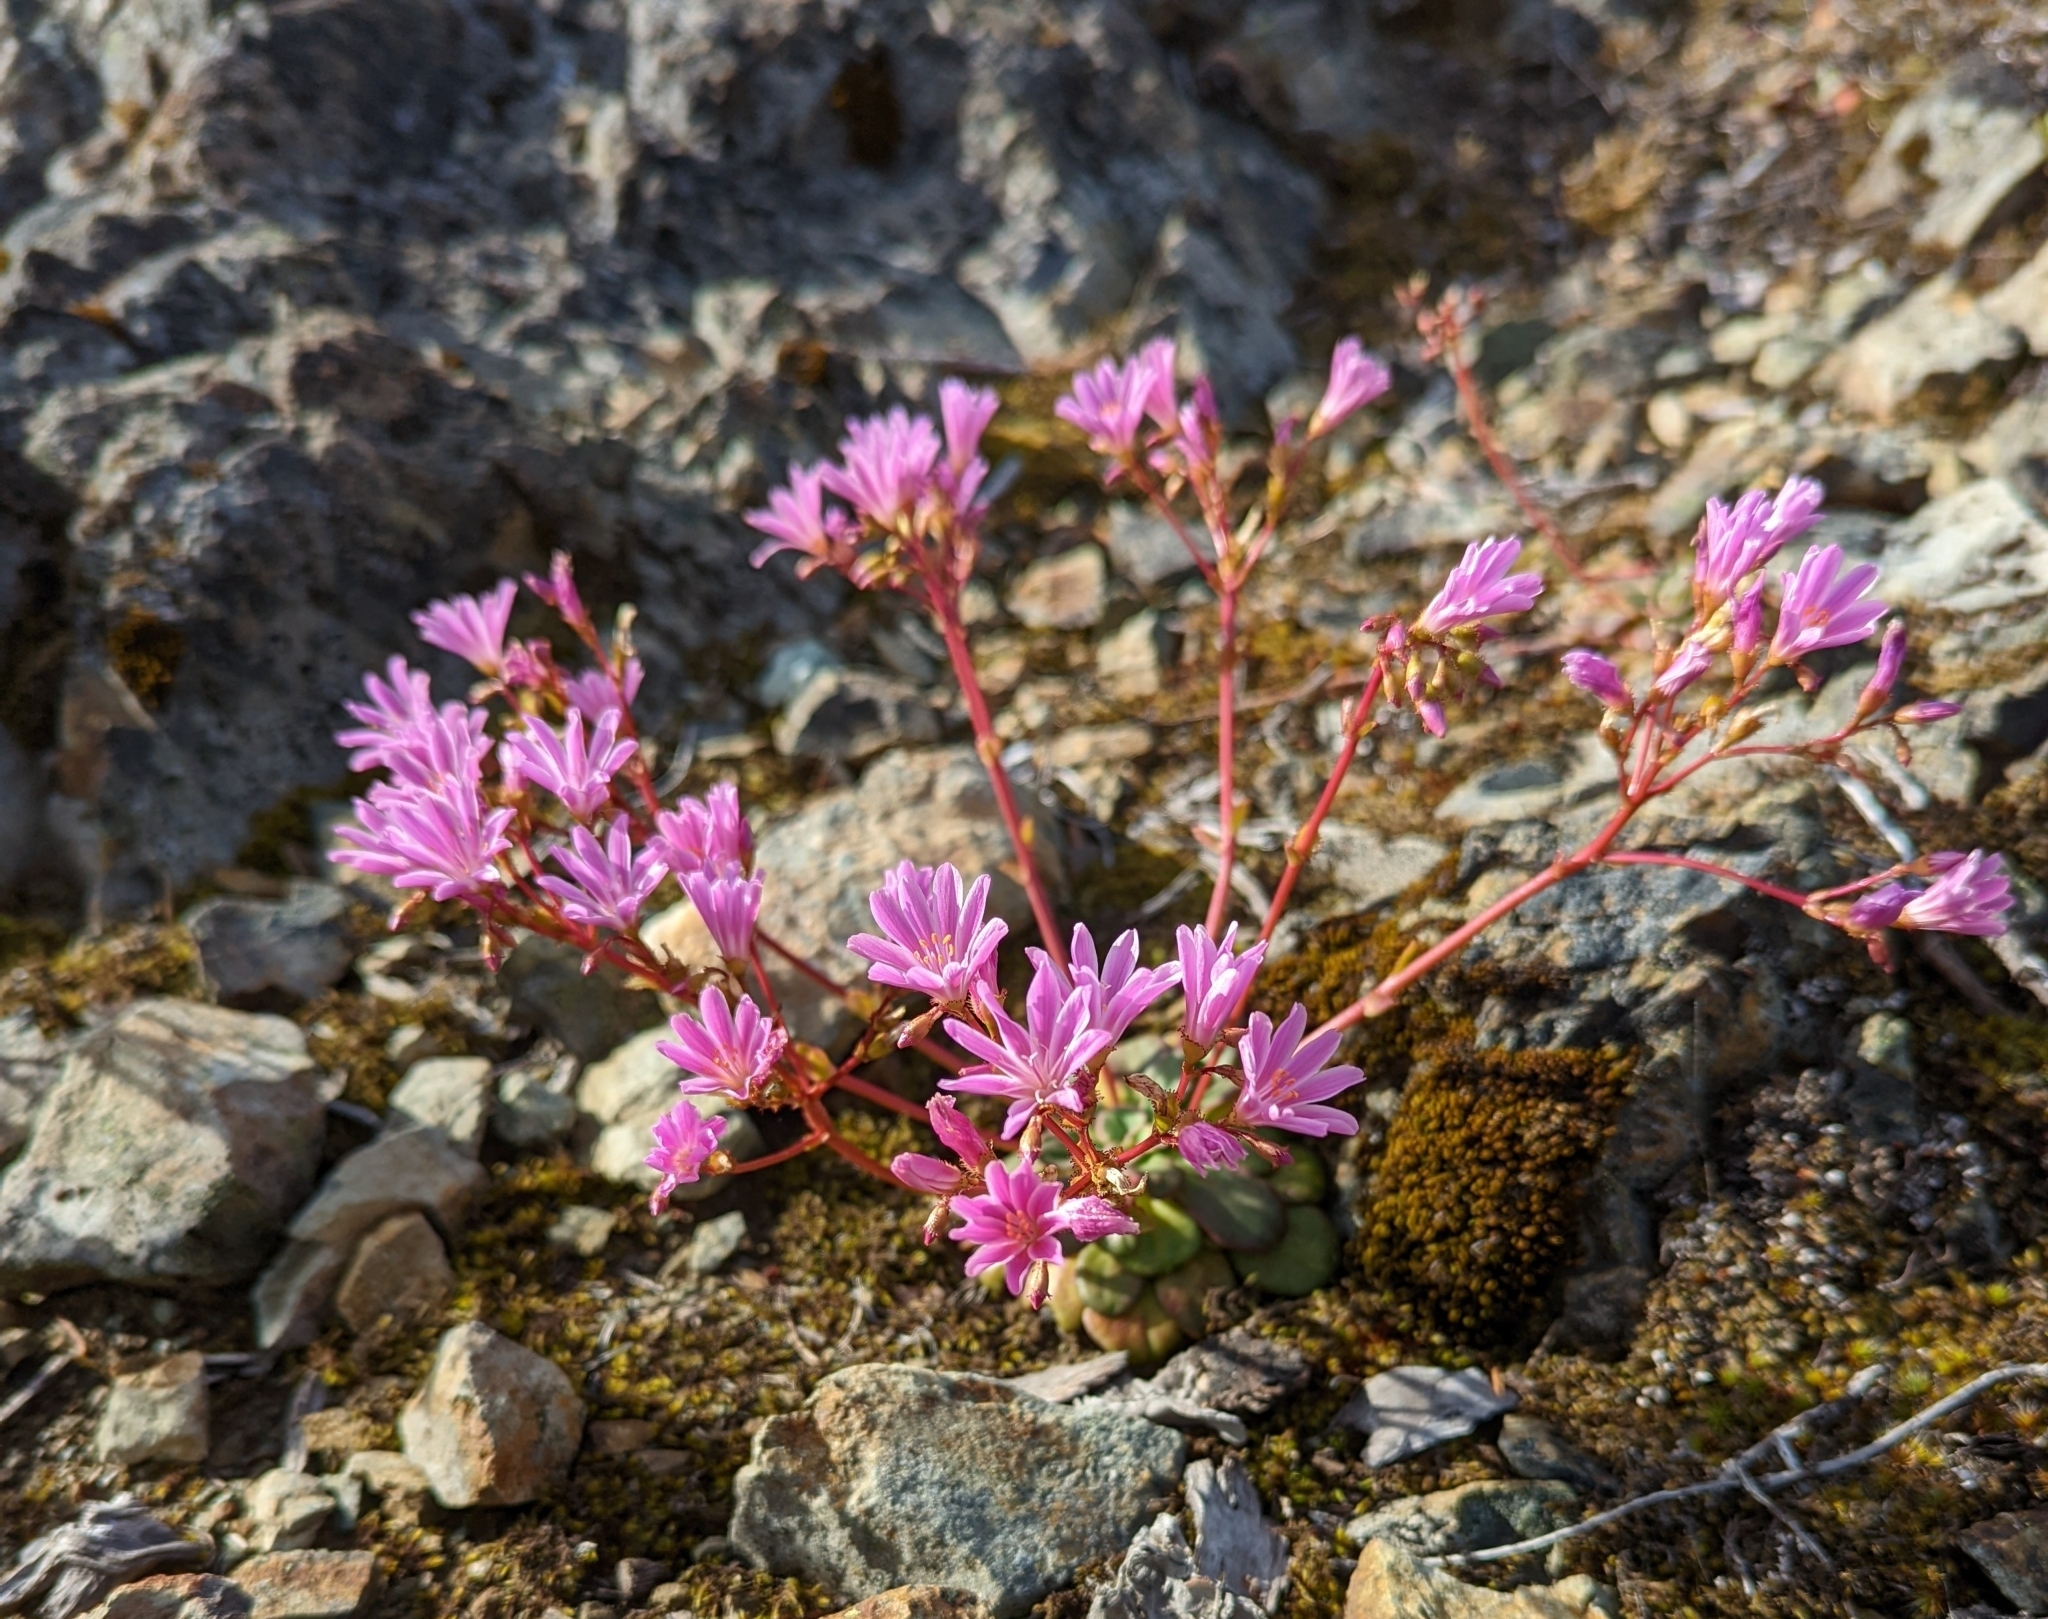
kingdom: Plantae
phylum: Tracheophyta
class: Magnoliopsida
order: Caryophyllales
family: Montiaceae
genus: Lewisia
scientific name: Lewisia cotyledon
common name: Siskiyou lewisia
